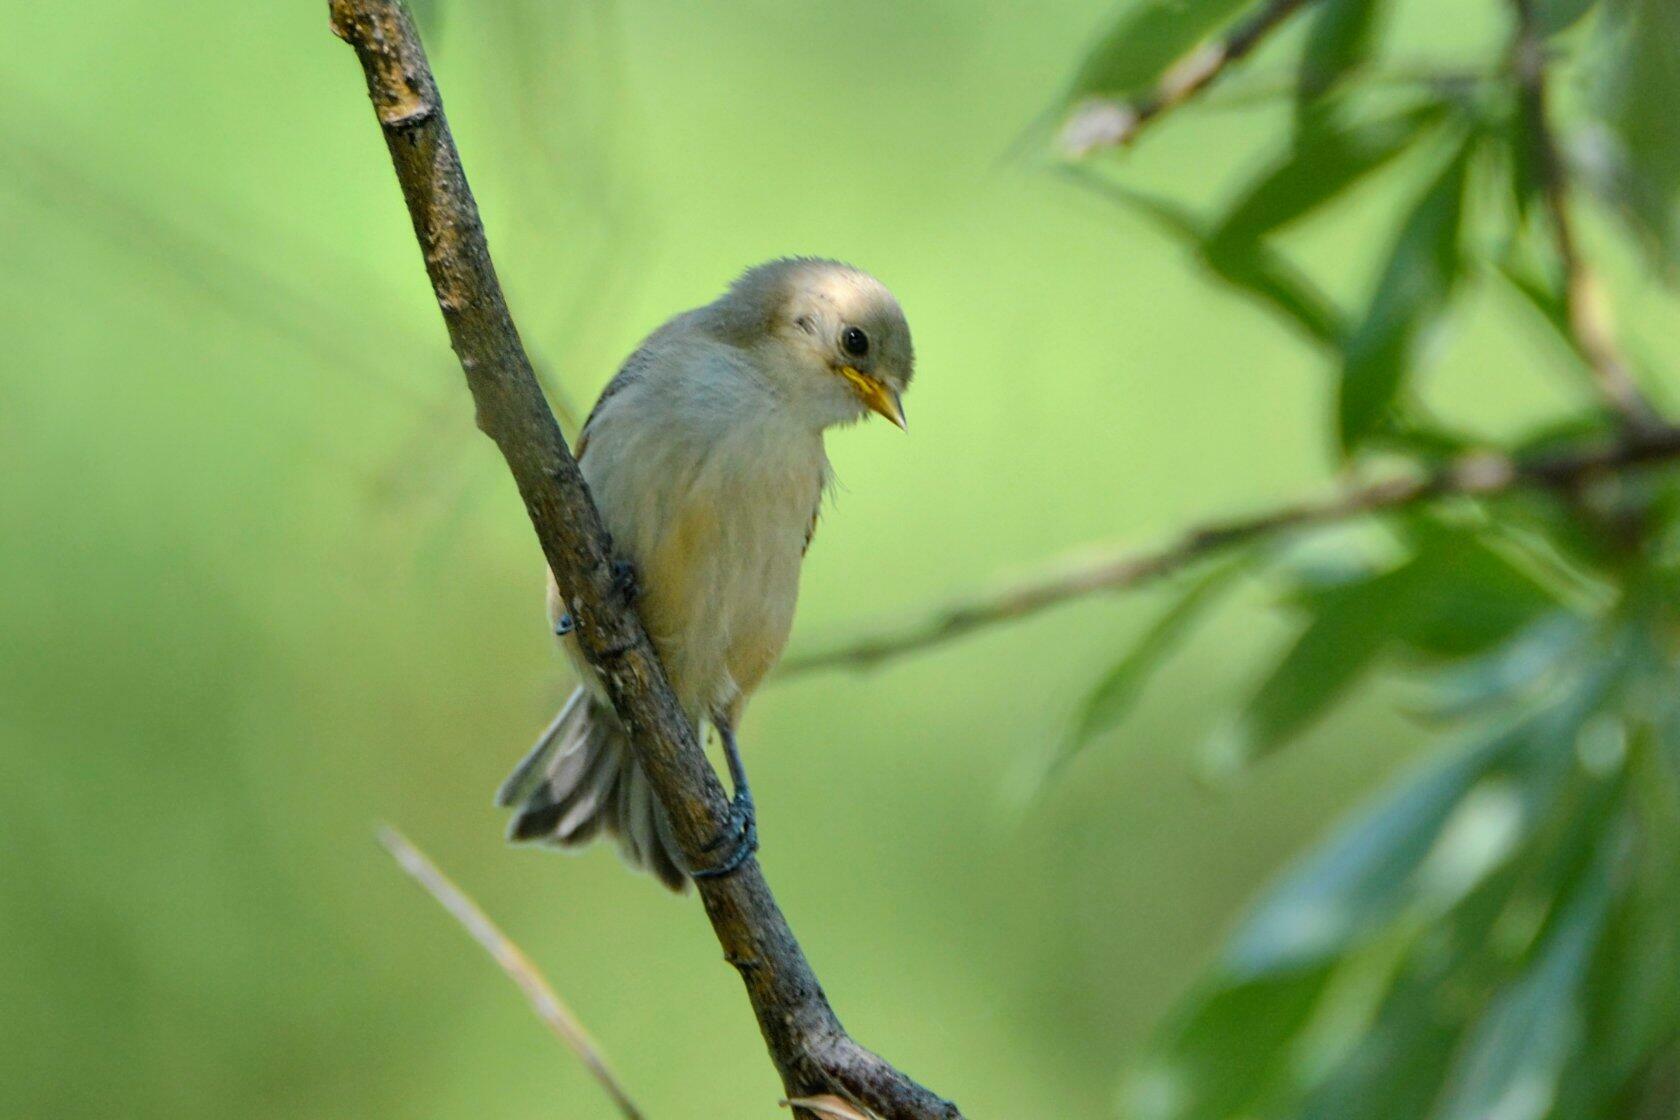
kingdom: Animalia
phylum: Chordata
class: Aves
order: Passeriformes
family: Remizidae
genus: Remiz
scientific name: Remiz pendulinus
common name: Eurasian penduline tit
